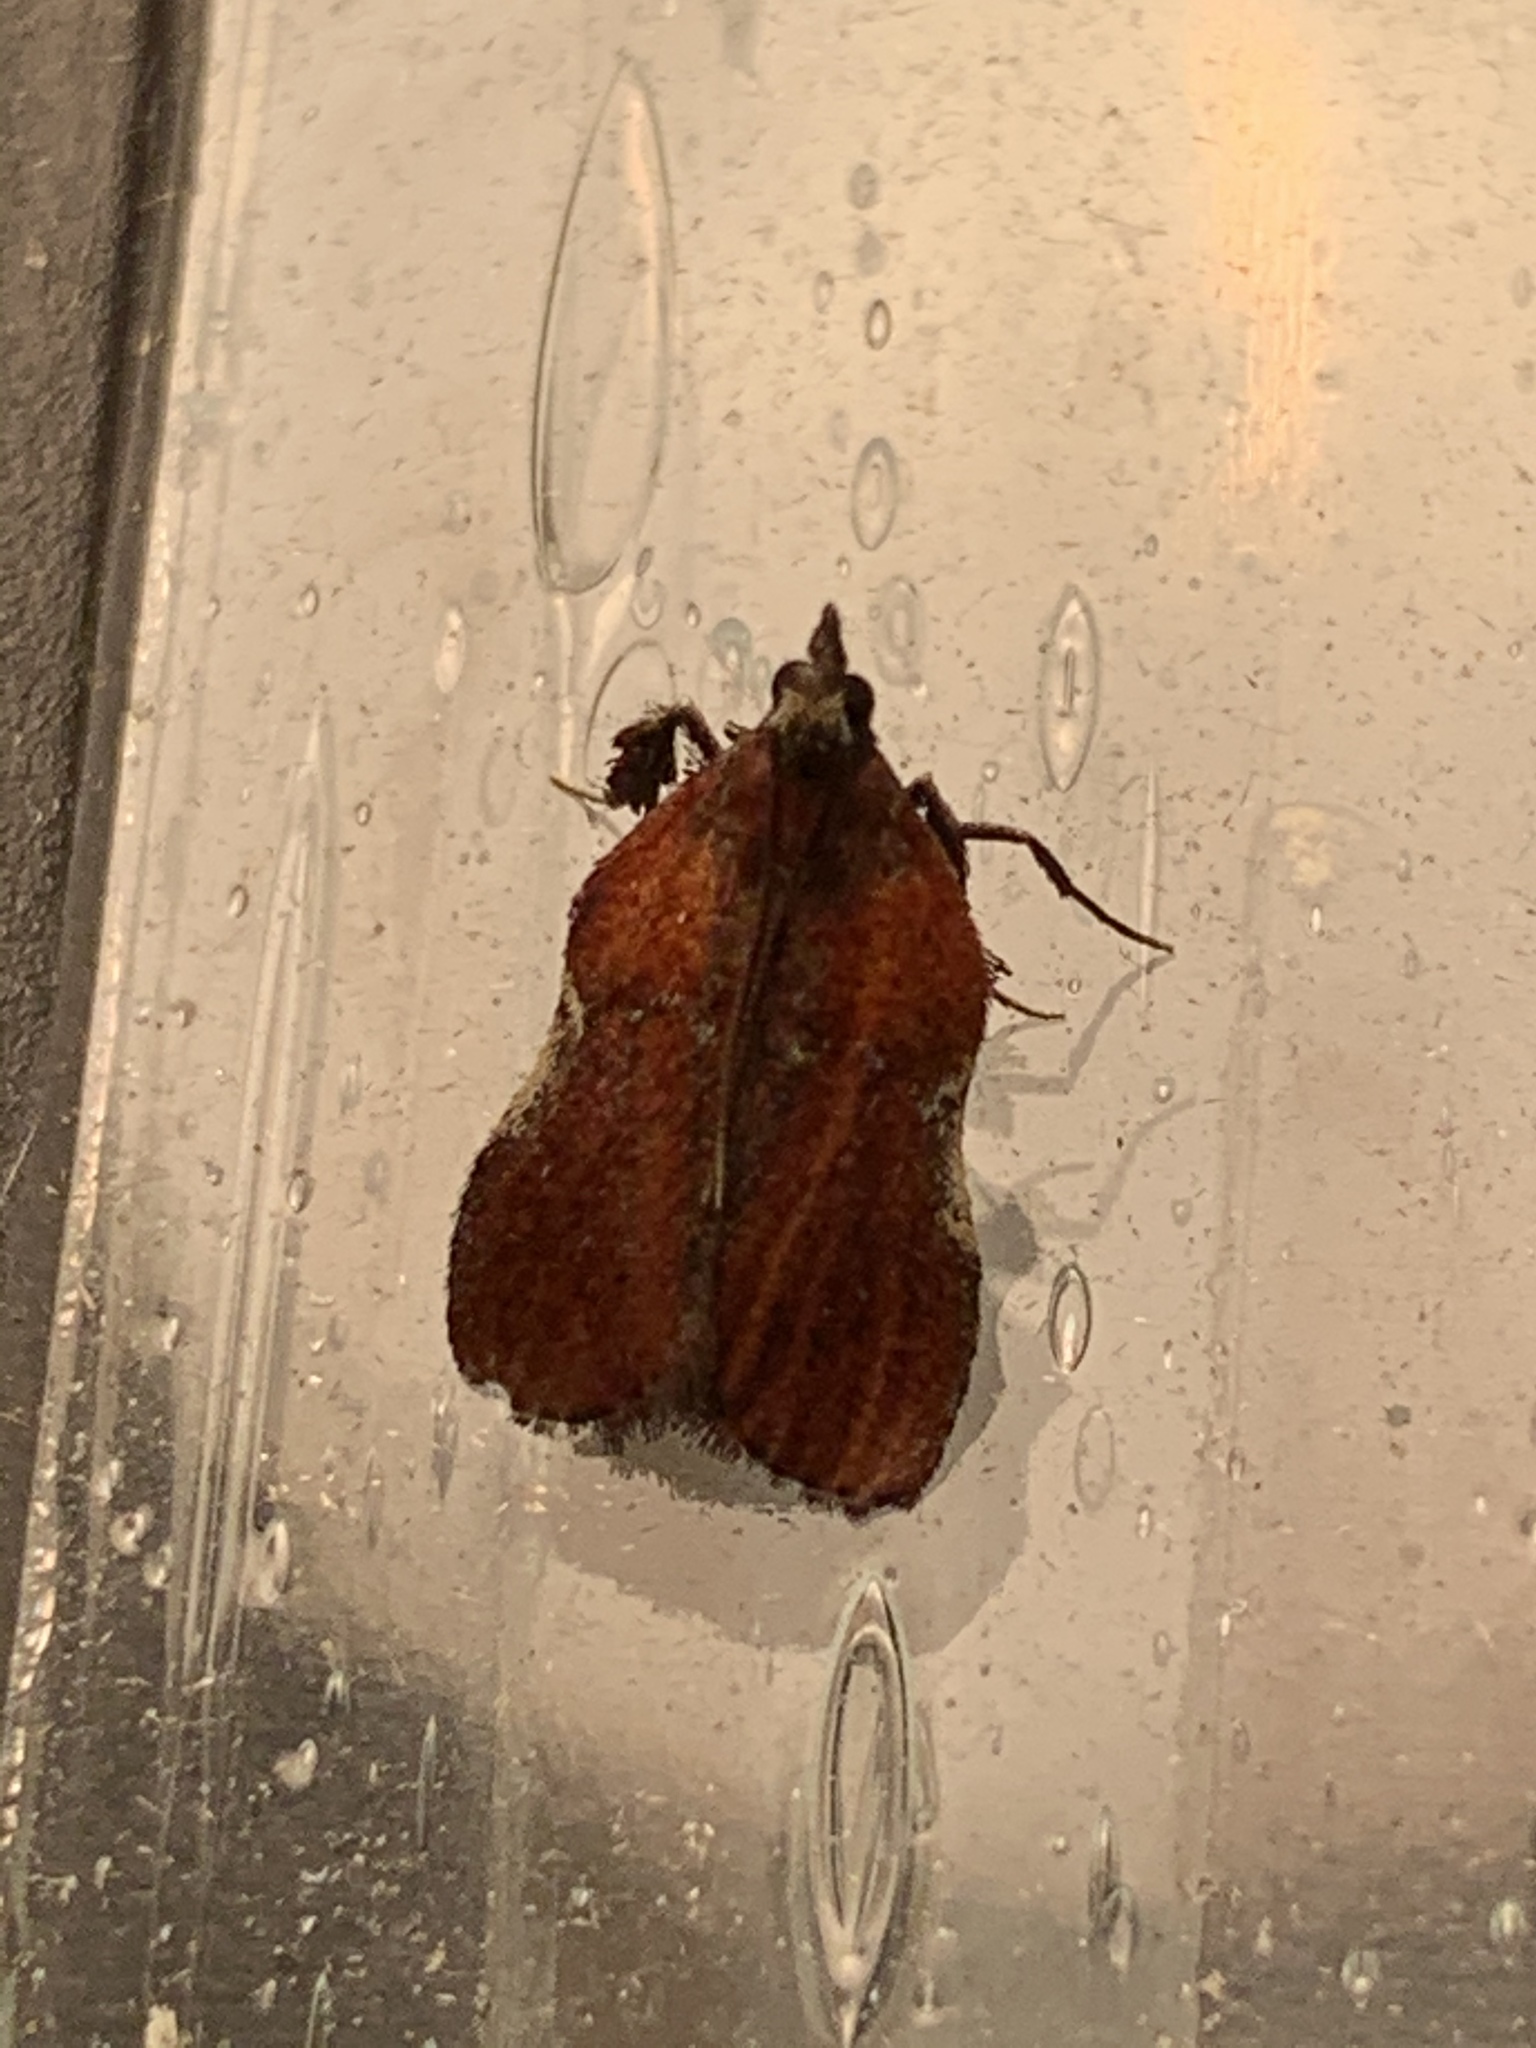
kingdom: Animalia
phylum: Arthropoda
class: Insecta
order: Lepidoptera
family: Pyralidae
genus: Galasa
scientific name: Galasa nigrinodis
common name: Boxwood leaftier moth
